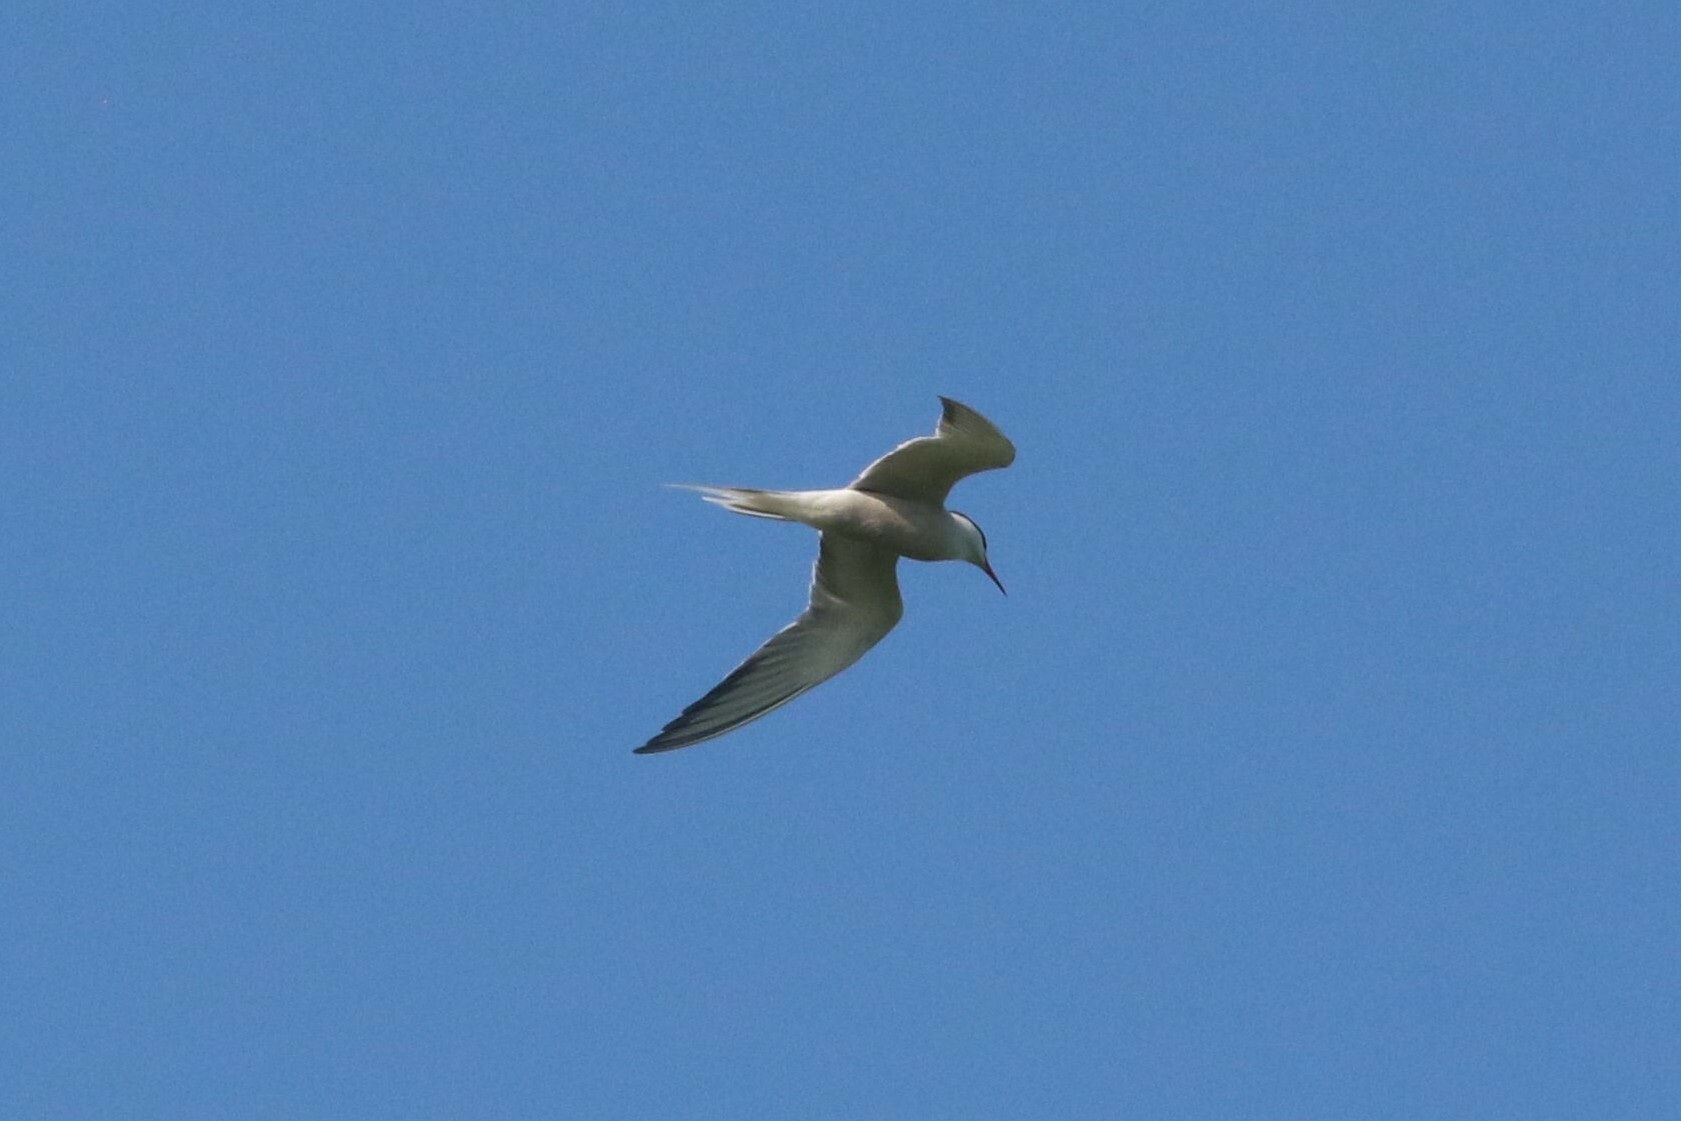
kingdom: Animalia
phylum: Chordata
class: Aves
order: Charadriiformes
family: Laridae
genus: Sterna
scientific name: Sterna hirundo
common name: Common tern
